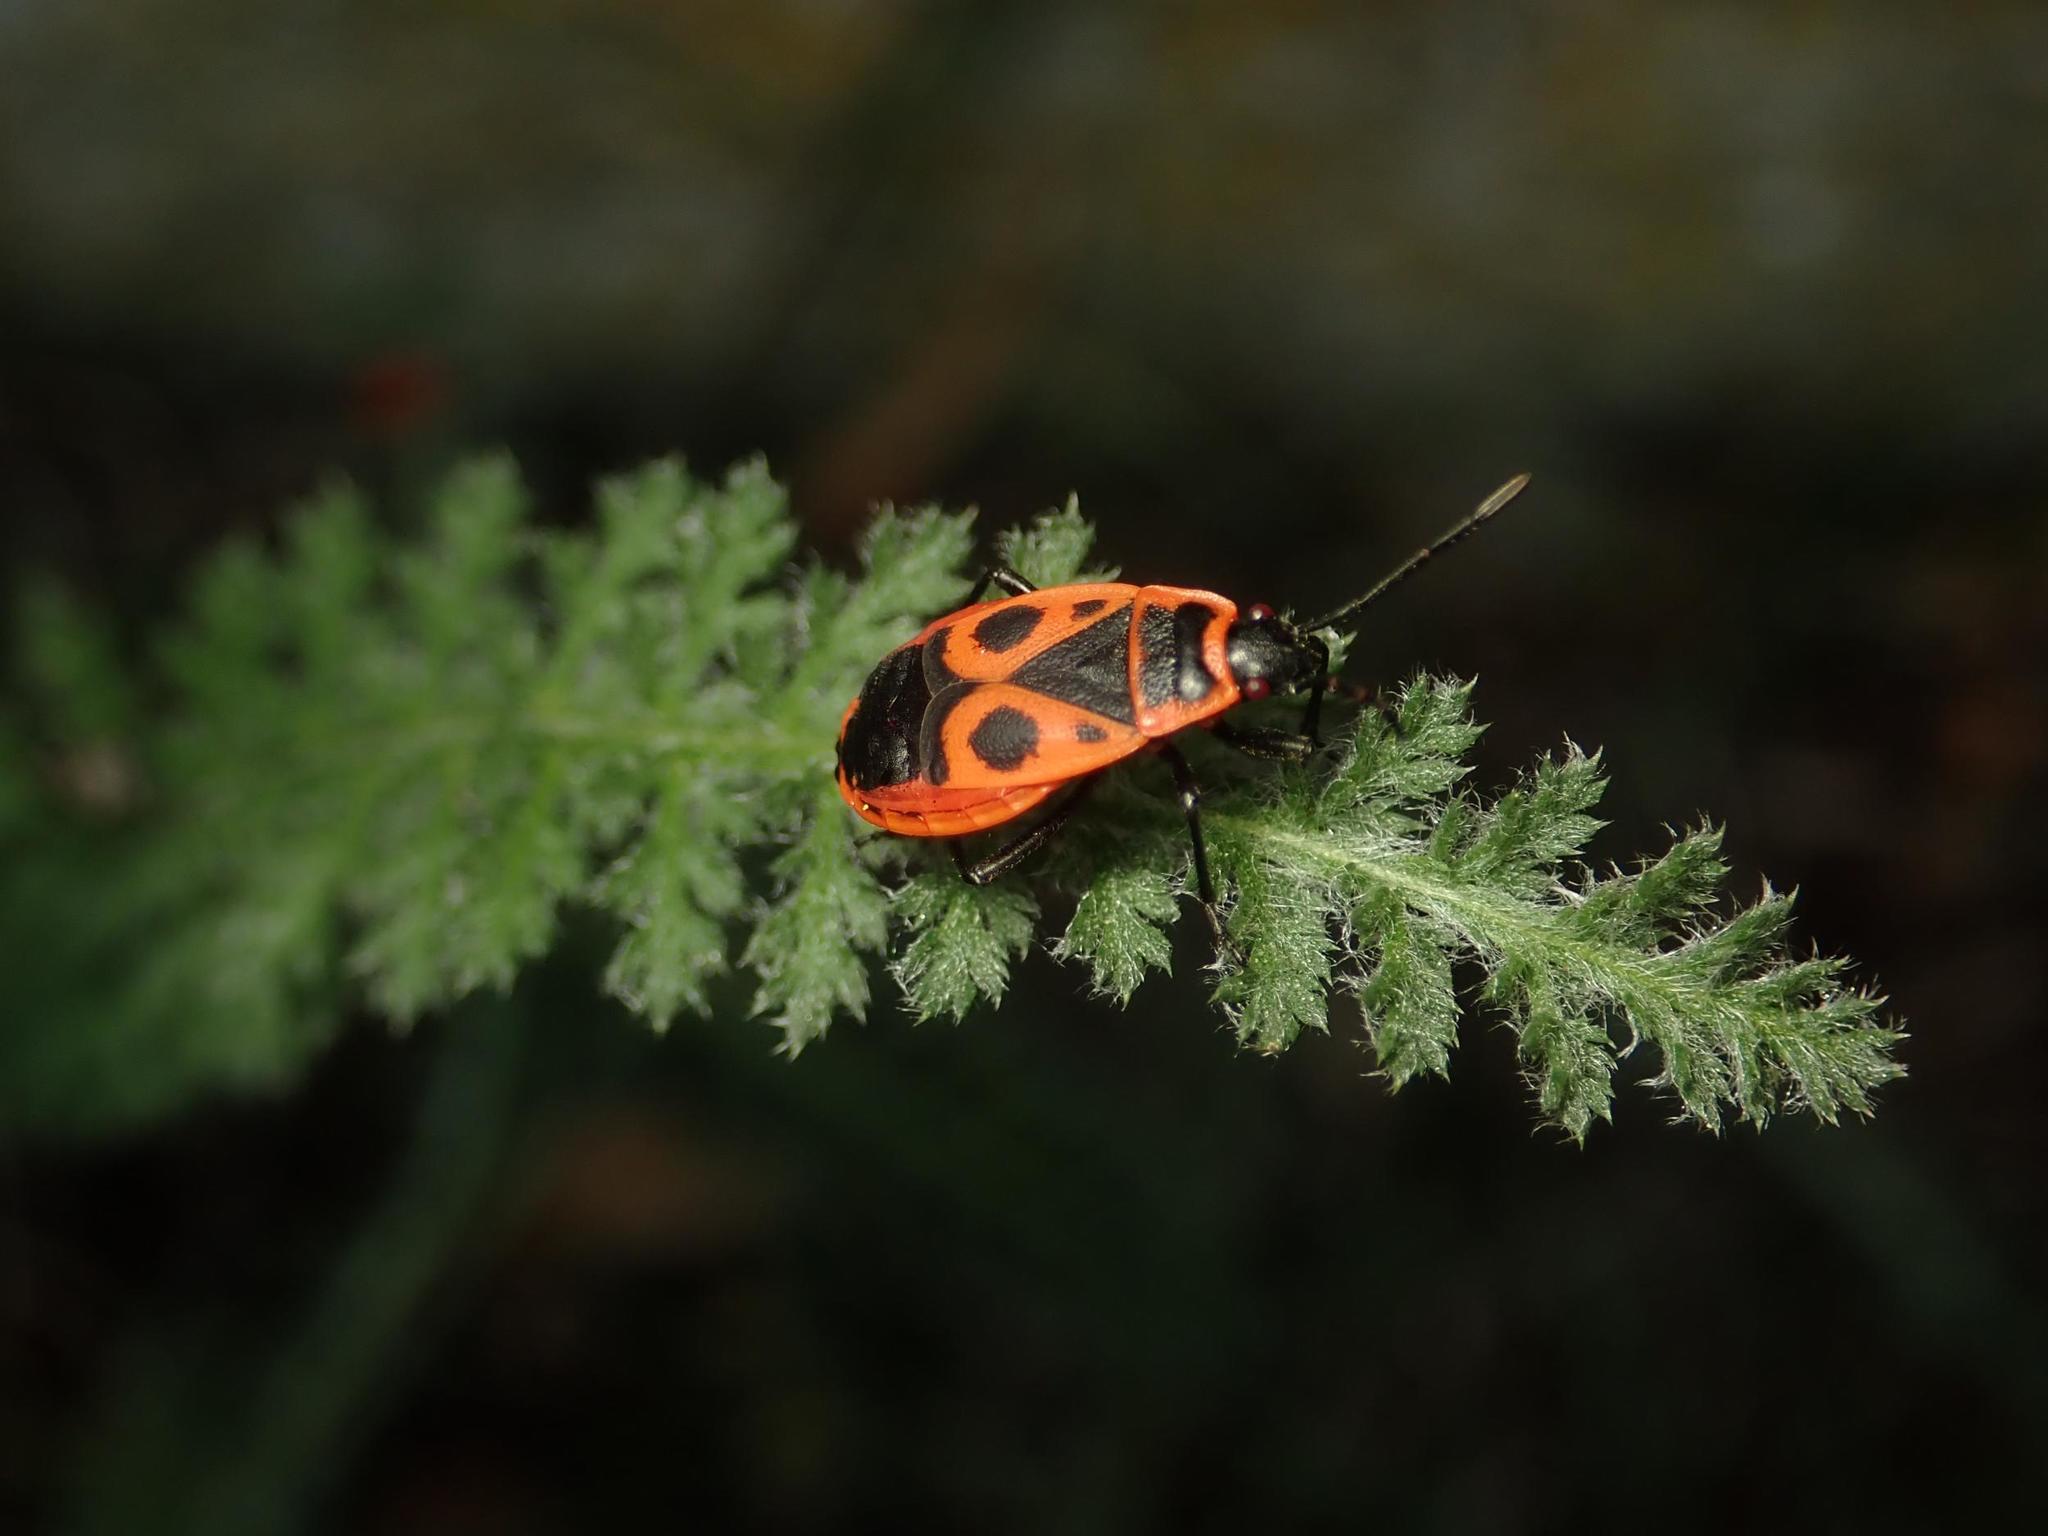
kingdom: Animalia
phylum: Arthropoda
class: Insecta
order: Hemiptera
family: Pyrrhocoridae
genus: Pyrrhocoris
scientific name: Pyrrhocoris apterus
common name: Firebug
